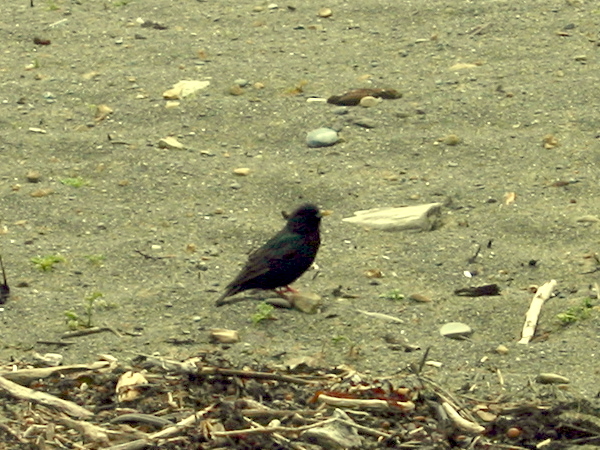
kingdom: Animalia
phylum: Chordata
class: Aves
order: Passeriformes
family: Sturnidae
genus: Sturnus
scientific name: Sturnus vulgaris
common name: Common starling
